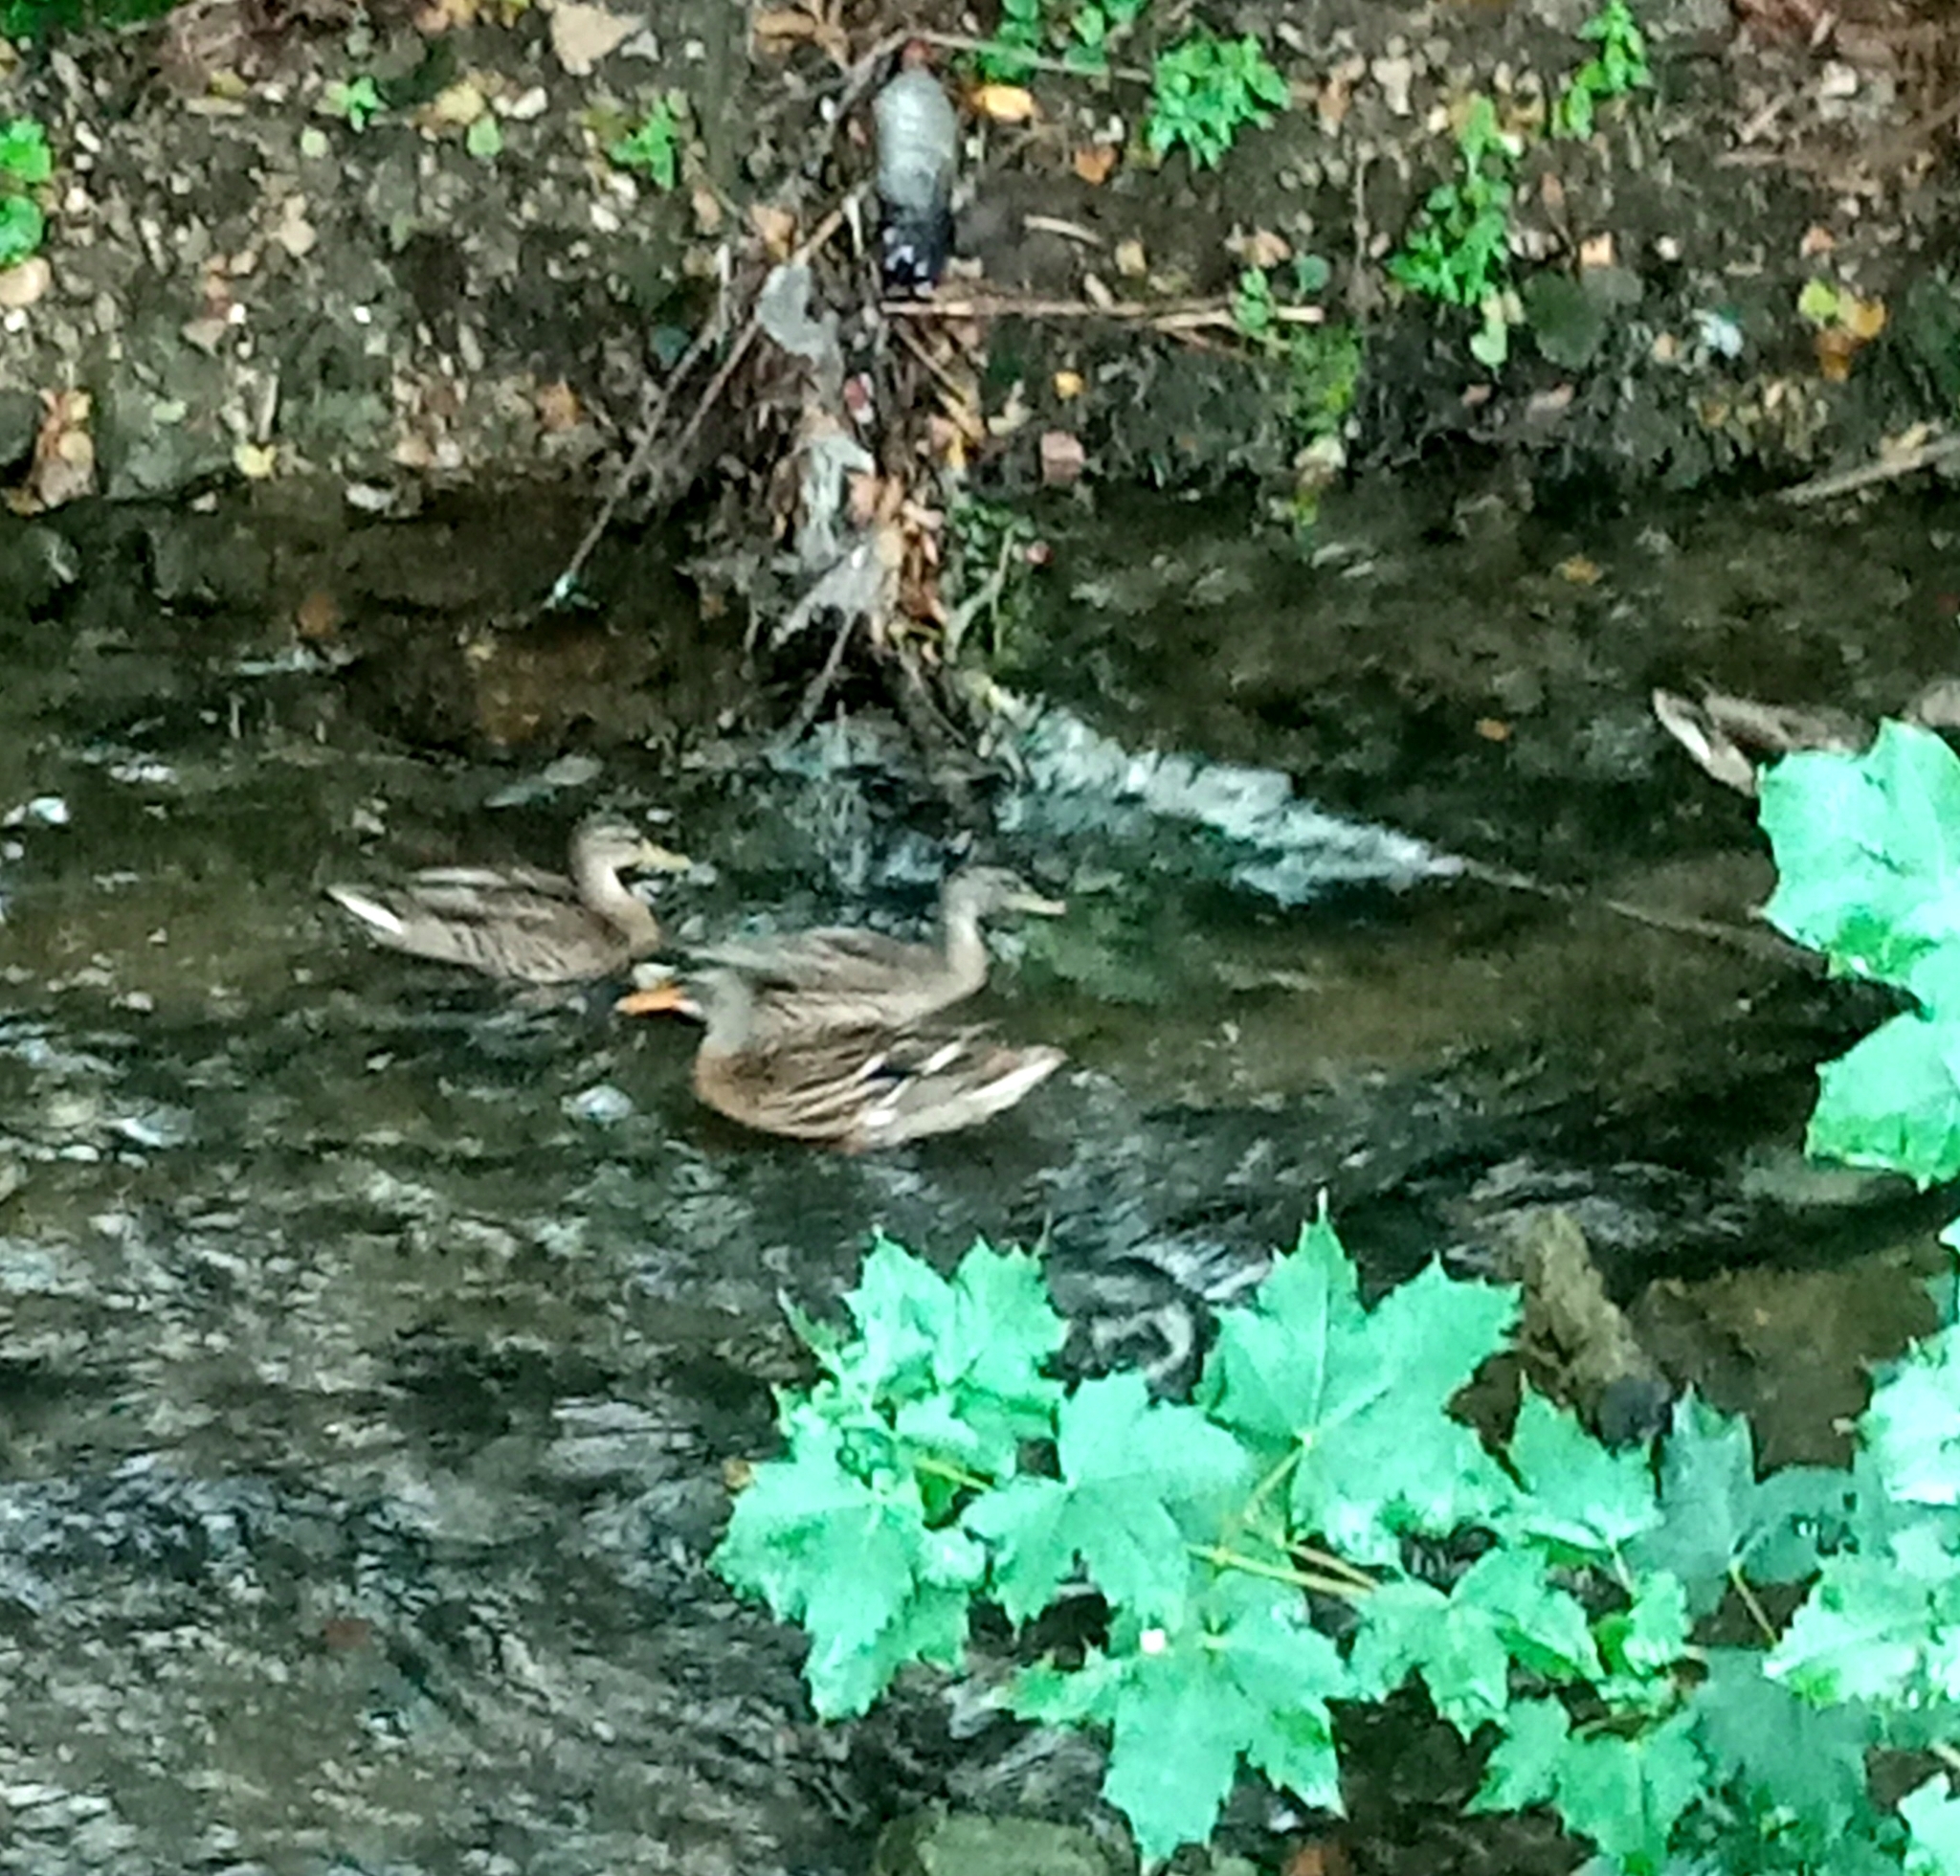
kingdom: Animalia
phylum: Chordata
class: Aves
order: Anseriformes
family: Anatidae
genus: Anas
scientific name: Anas platyrhynchos
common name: Mallard
